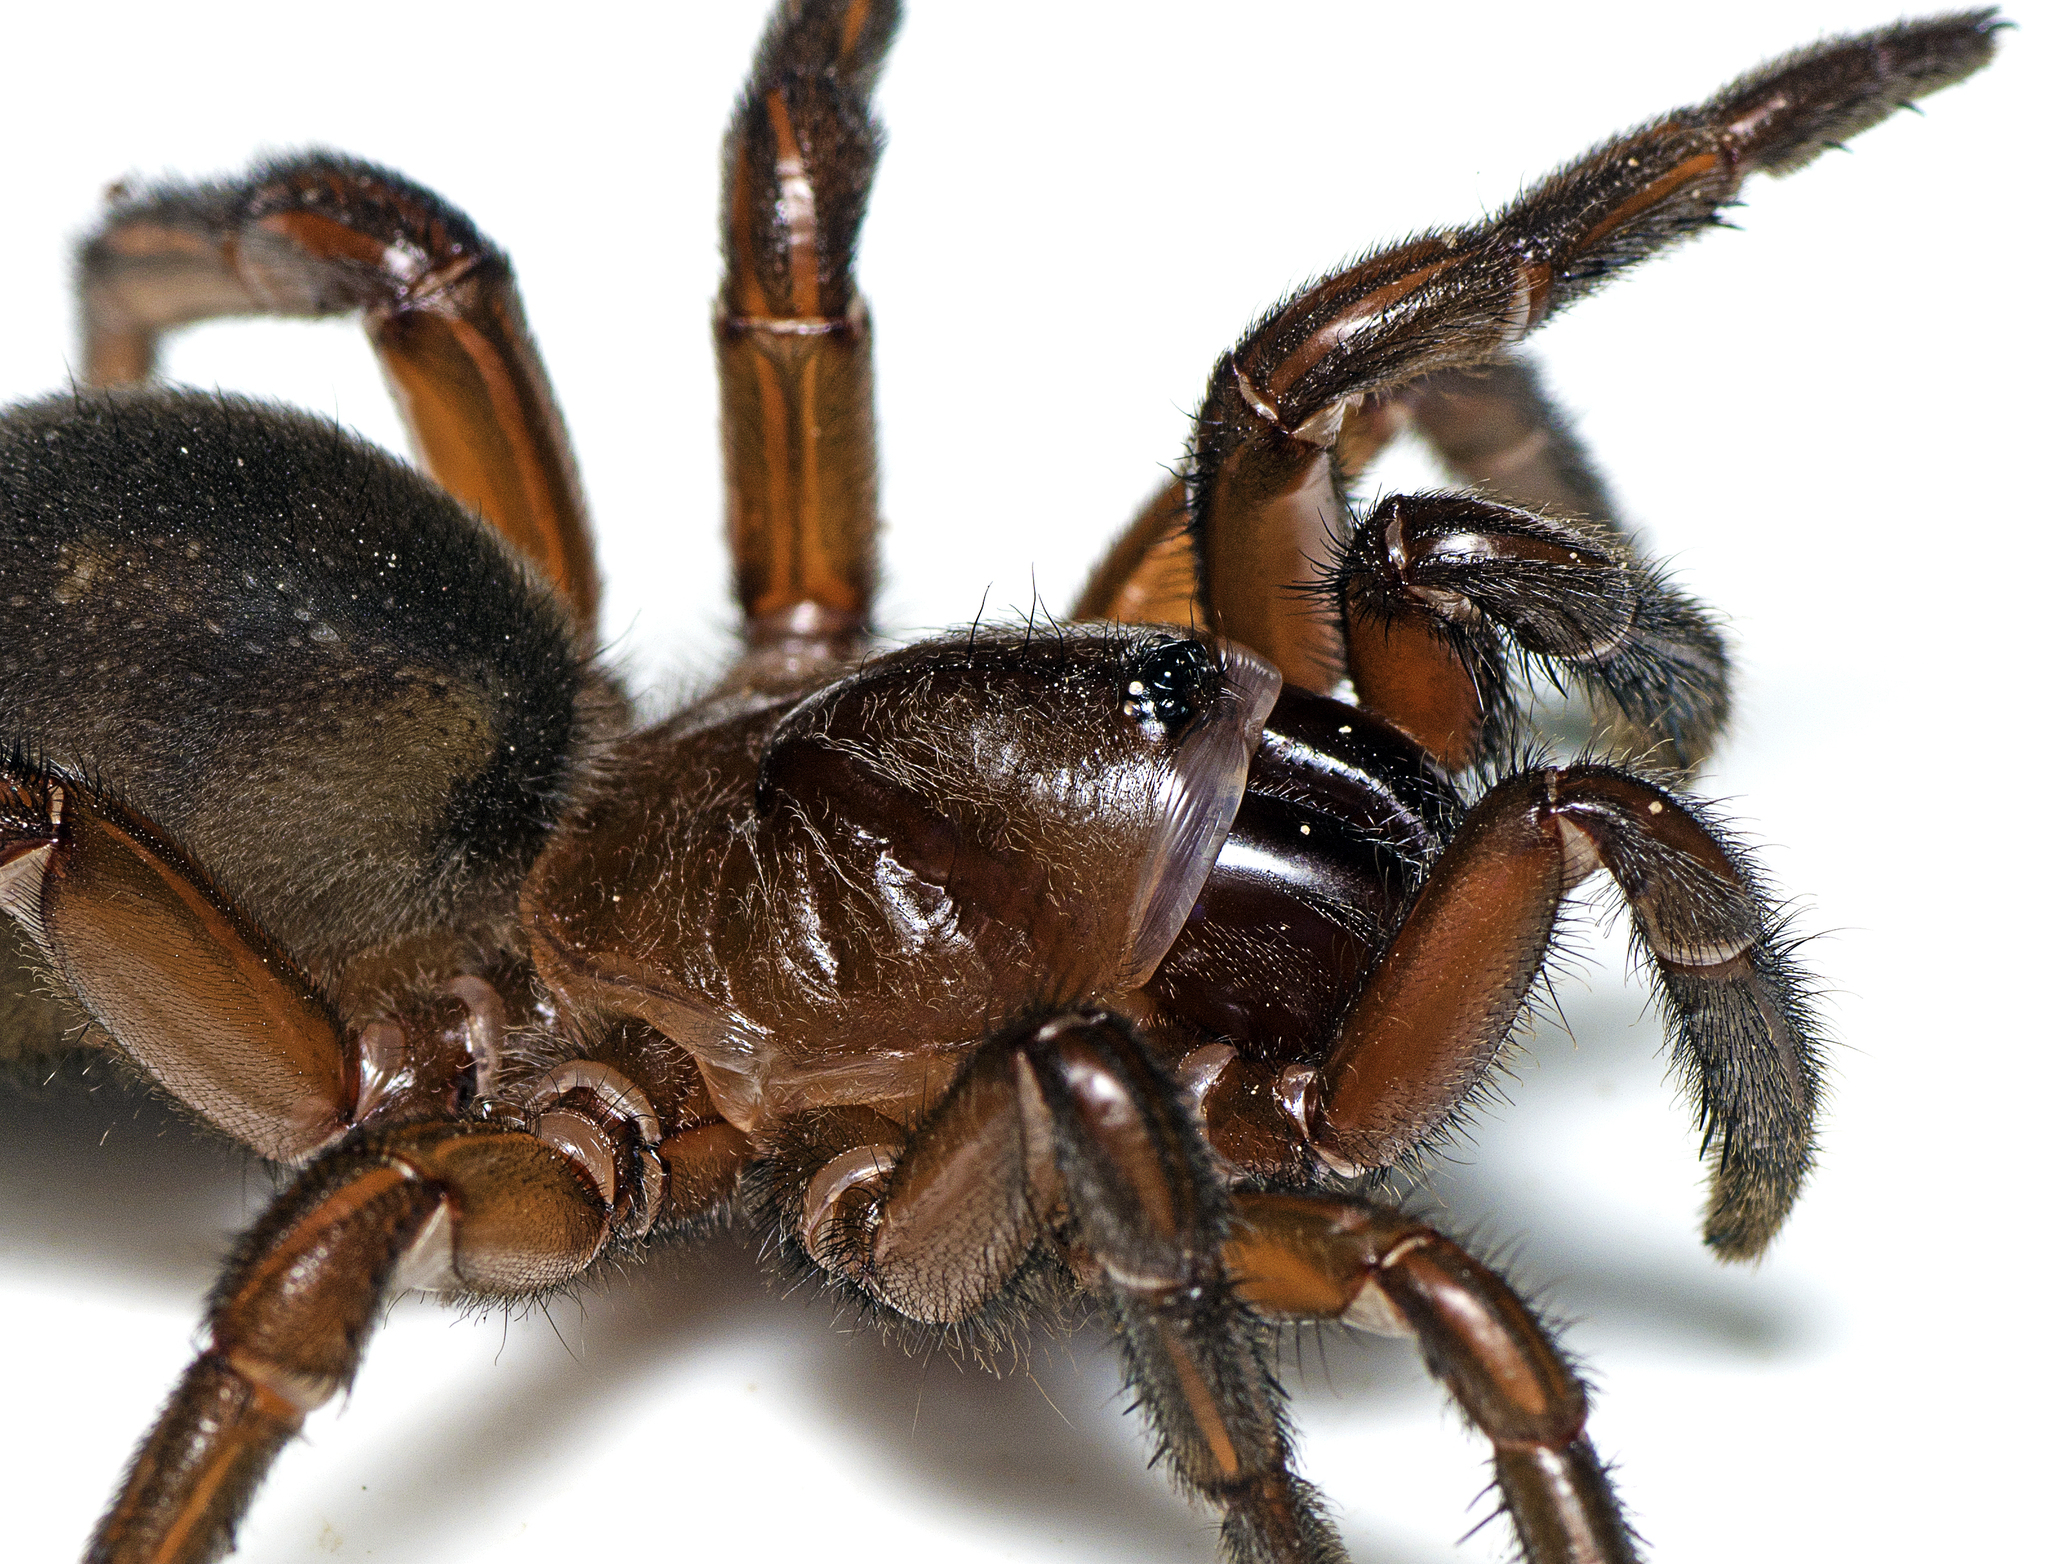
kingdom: Animalia
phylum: Arthropoda
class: Arachnida
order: Araneae
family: Idiopidae
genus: Euoplos
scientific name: Euoplos
